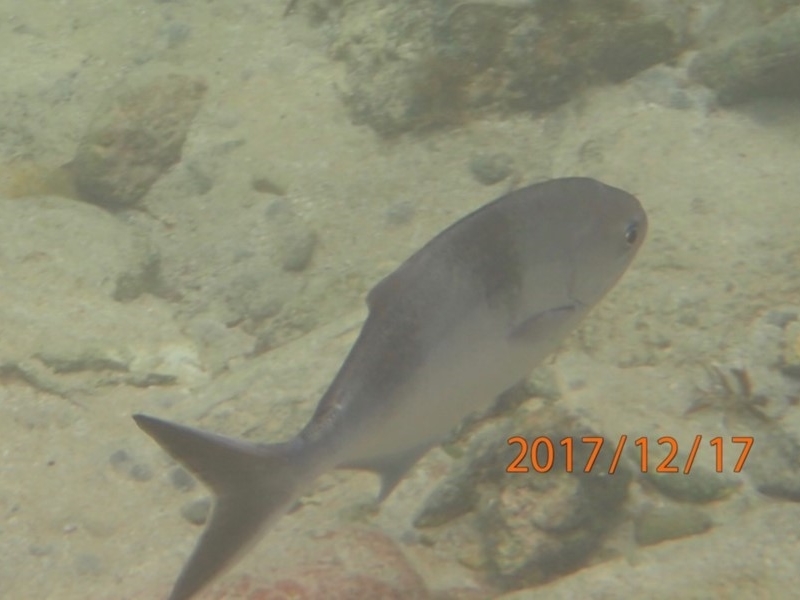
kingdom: Animalia
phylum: Chordata
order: Perciformes
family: Kyphosidae
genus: Scorpis
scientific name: Scorpis aequipinnis
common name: Sea sweep
